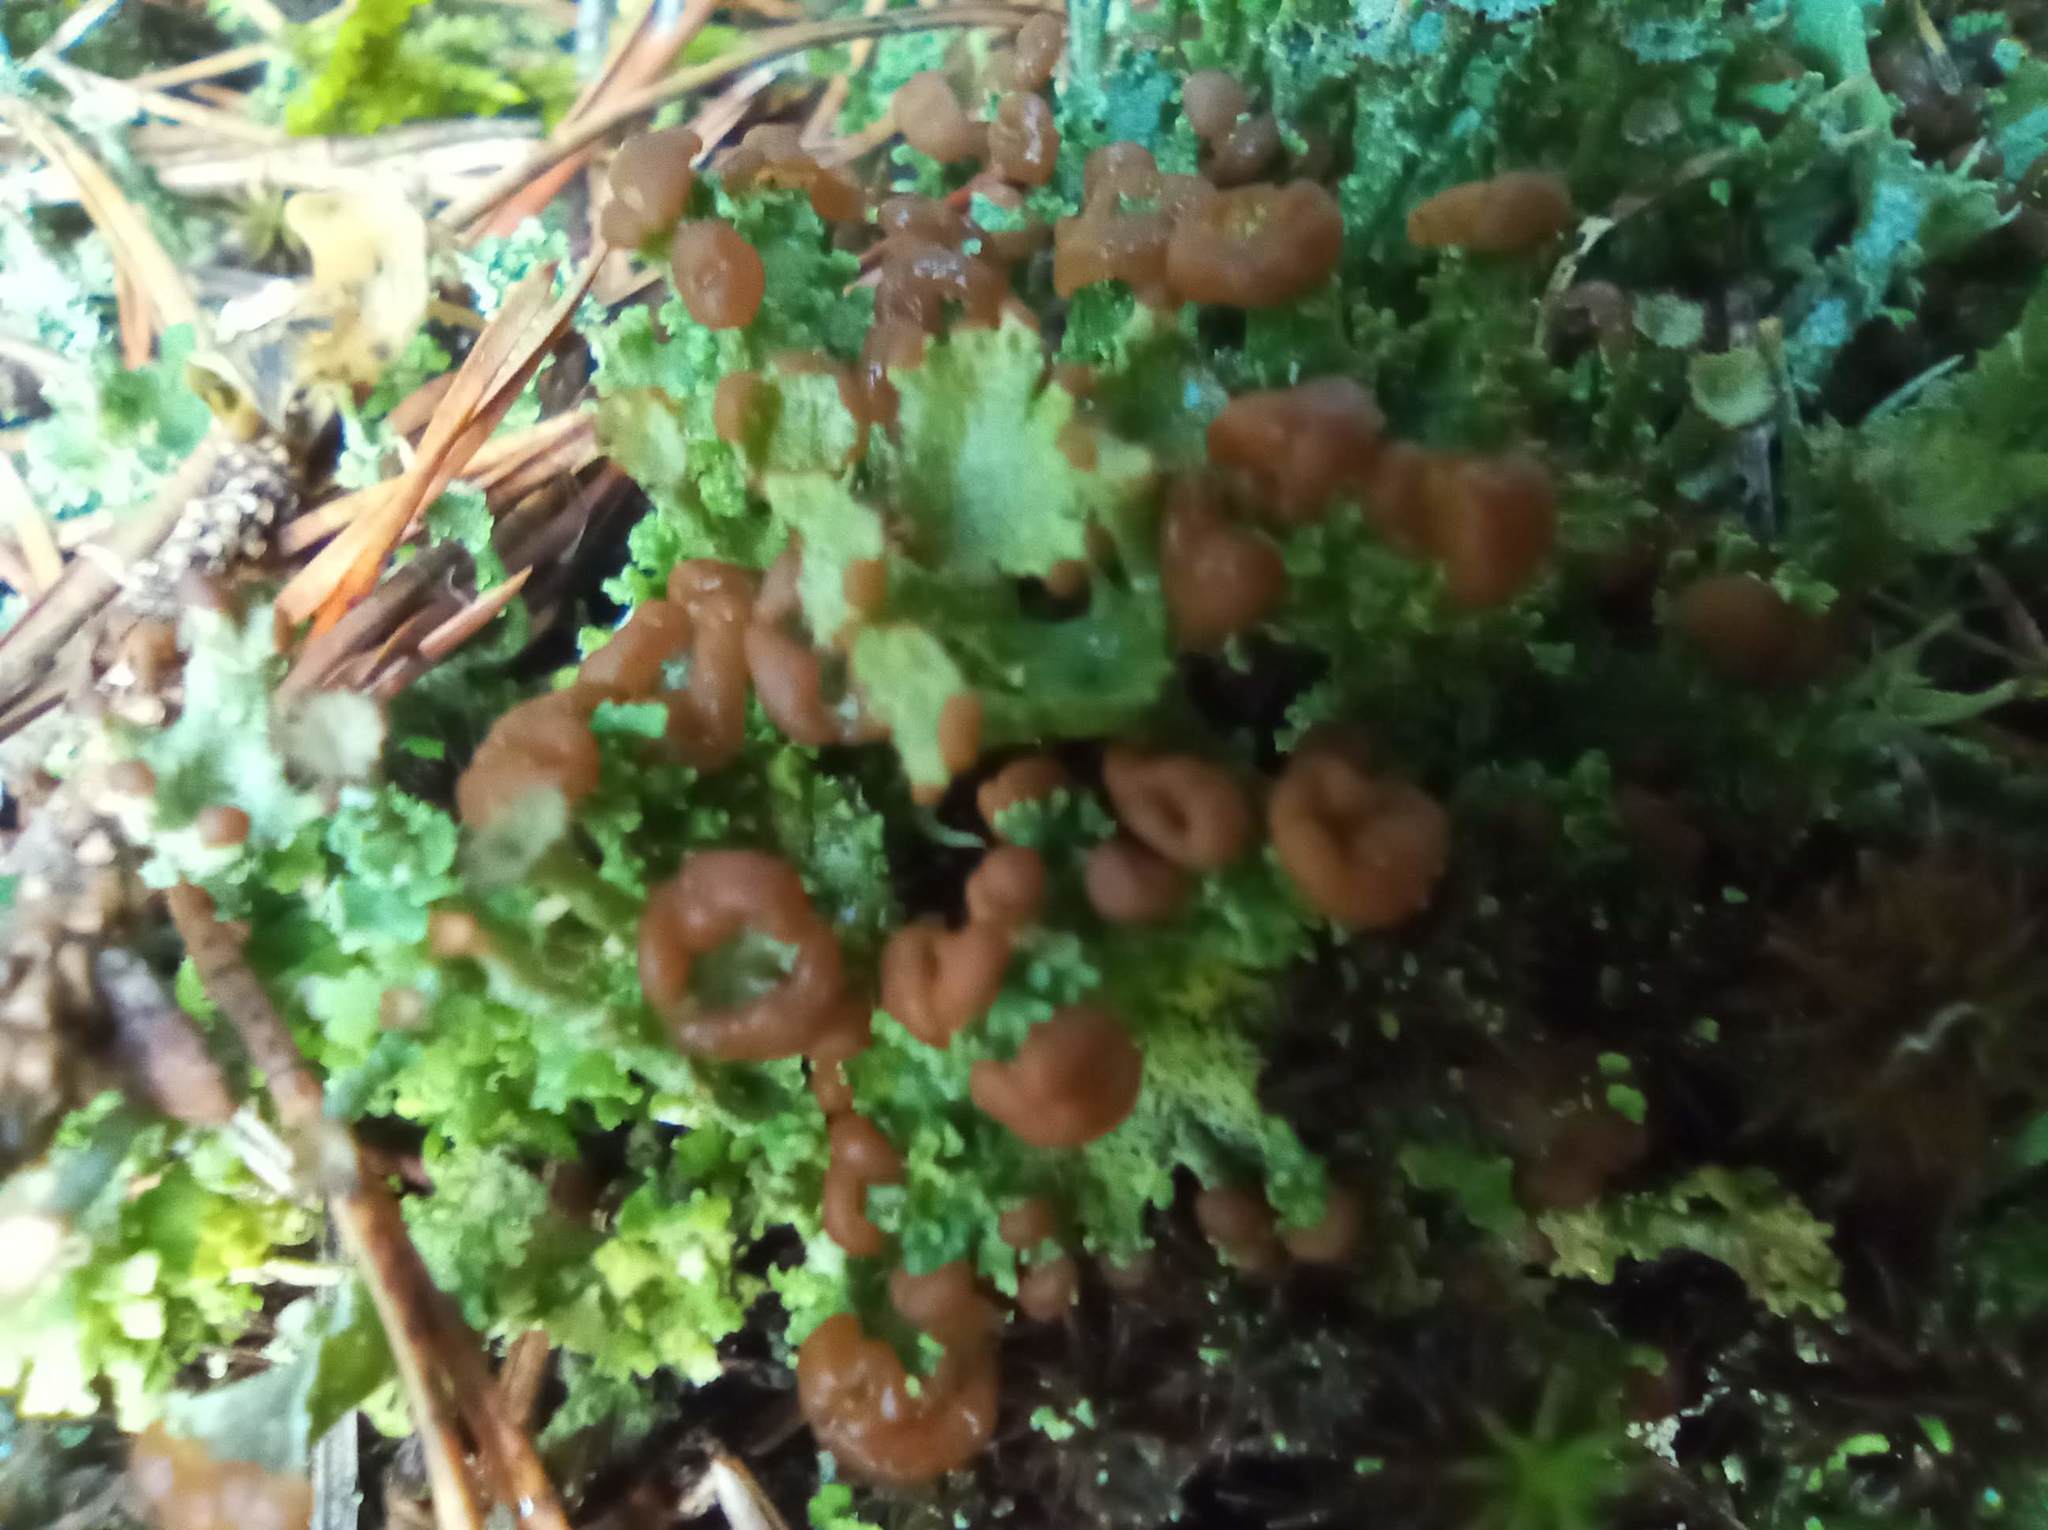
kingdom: Fungi
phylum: Ascomycota
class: Lecanoromycetes
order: Lecanorales
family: Cladoniaceae
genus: Cladonia
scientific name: Cladonia gracilis
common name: Smooth clad lichen
